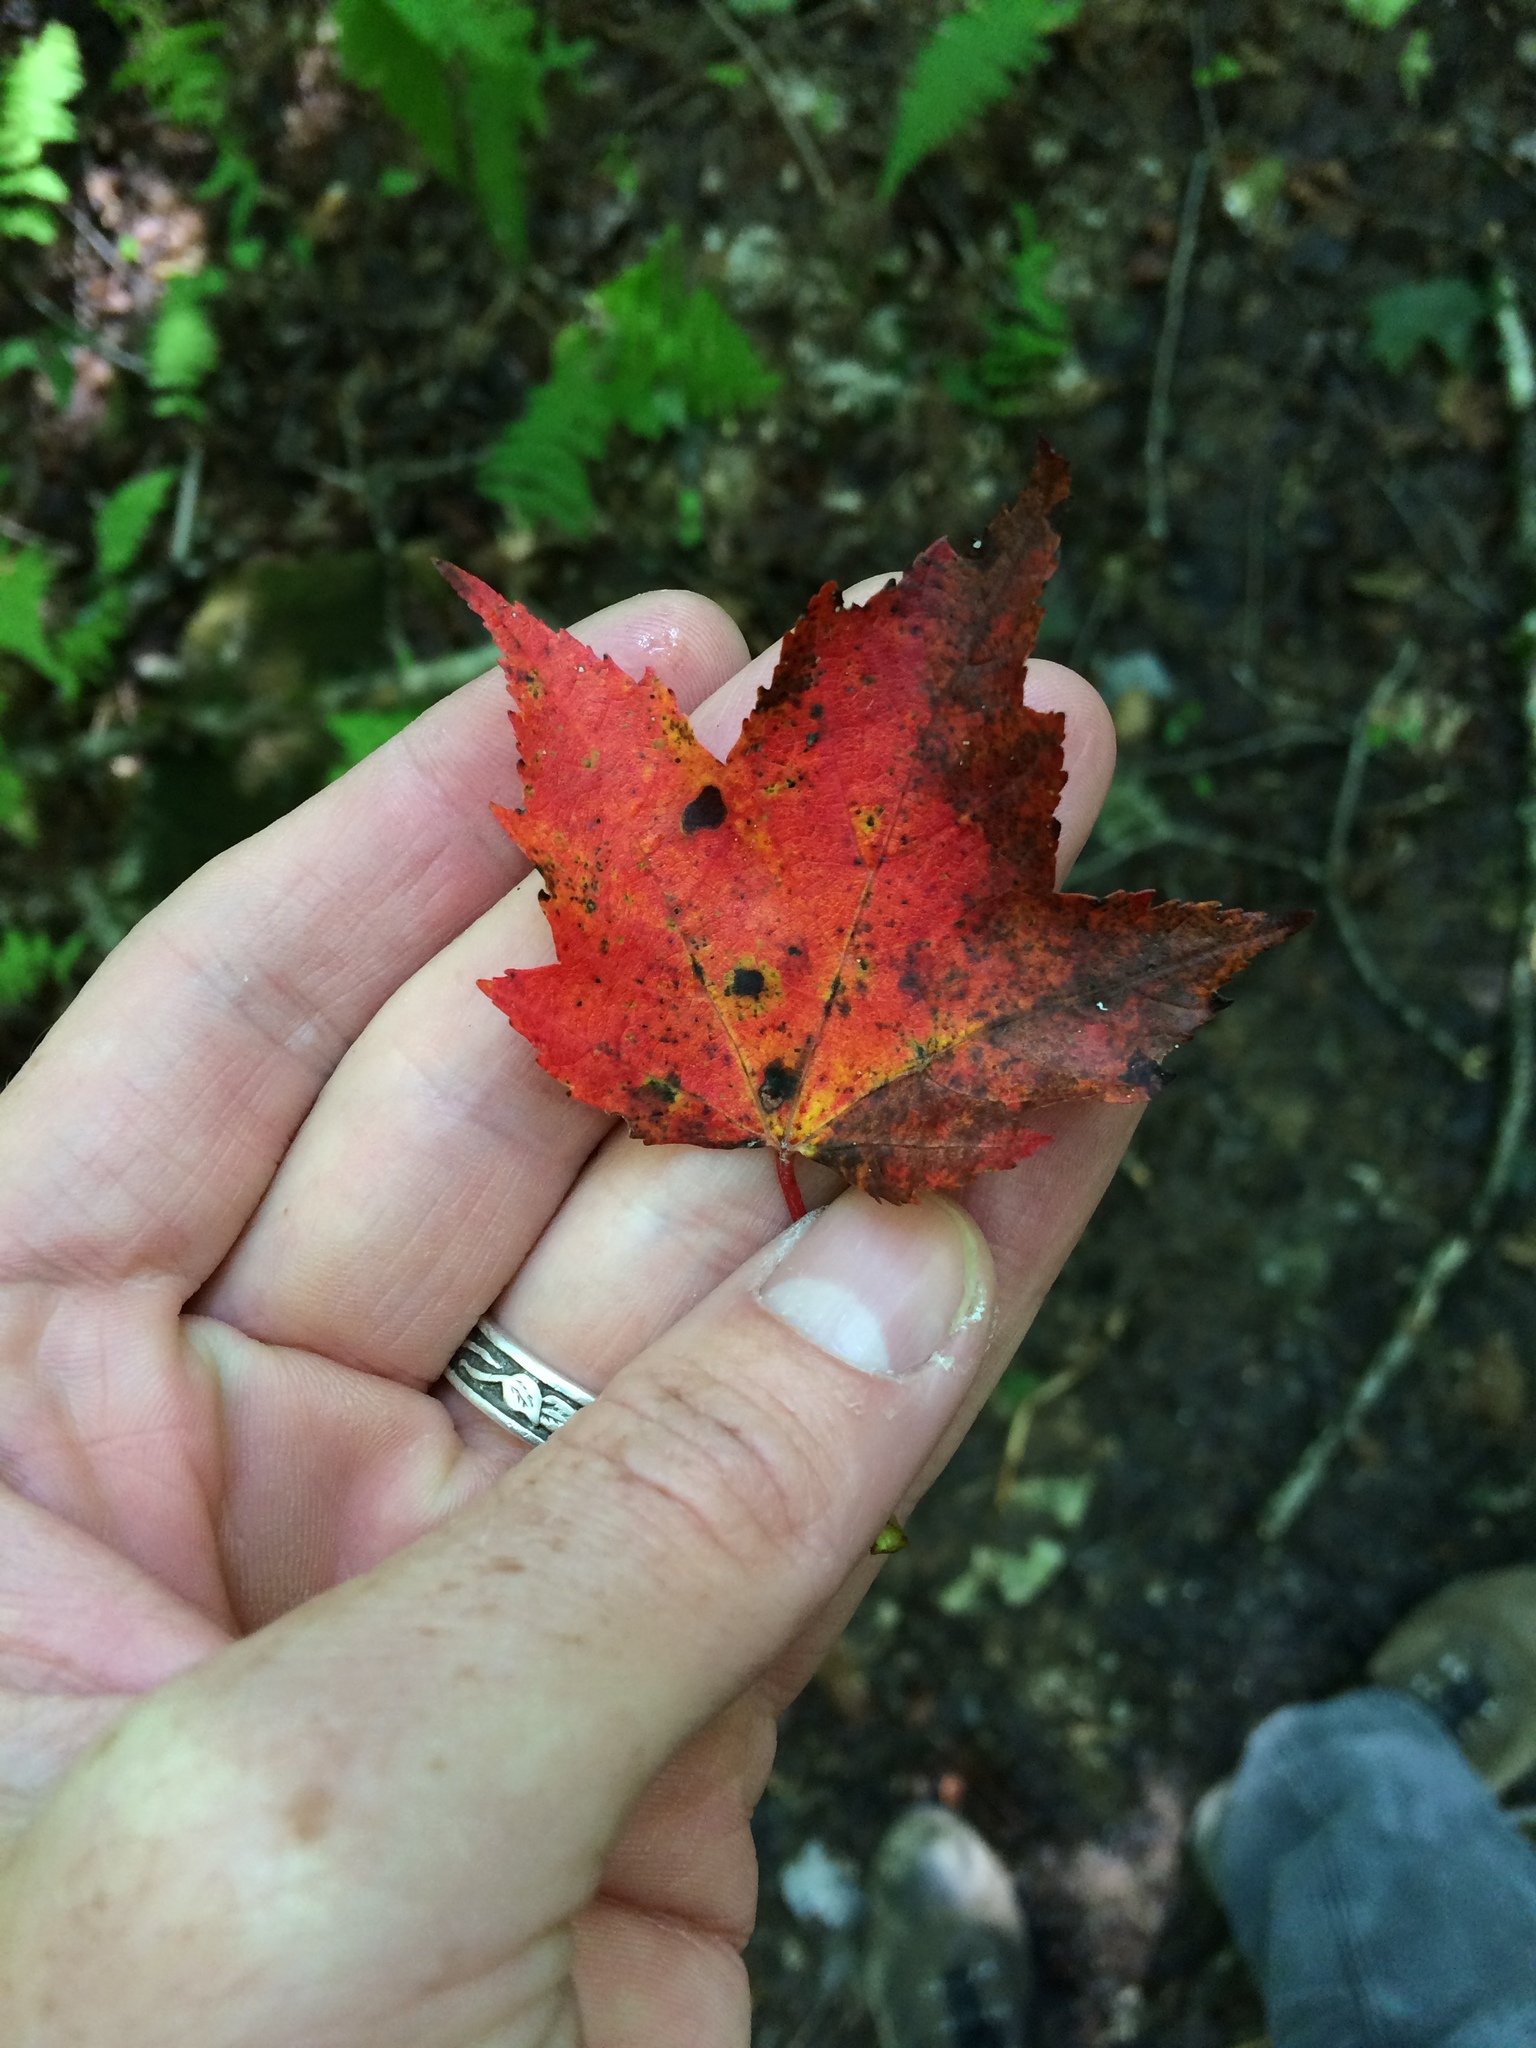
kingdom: Plantae
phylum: Tracheophyta
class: Magnoliopsida
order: Sapindales
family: Sapindaceae
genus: Acer
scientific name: Acer rubrum
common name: Red maple
